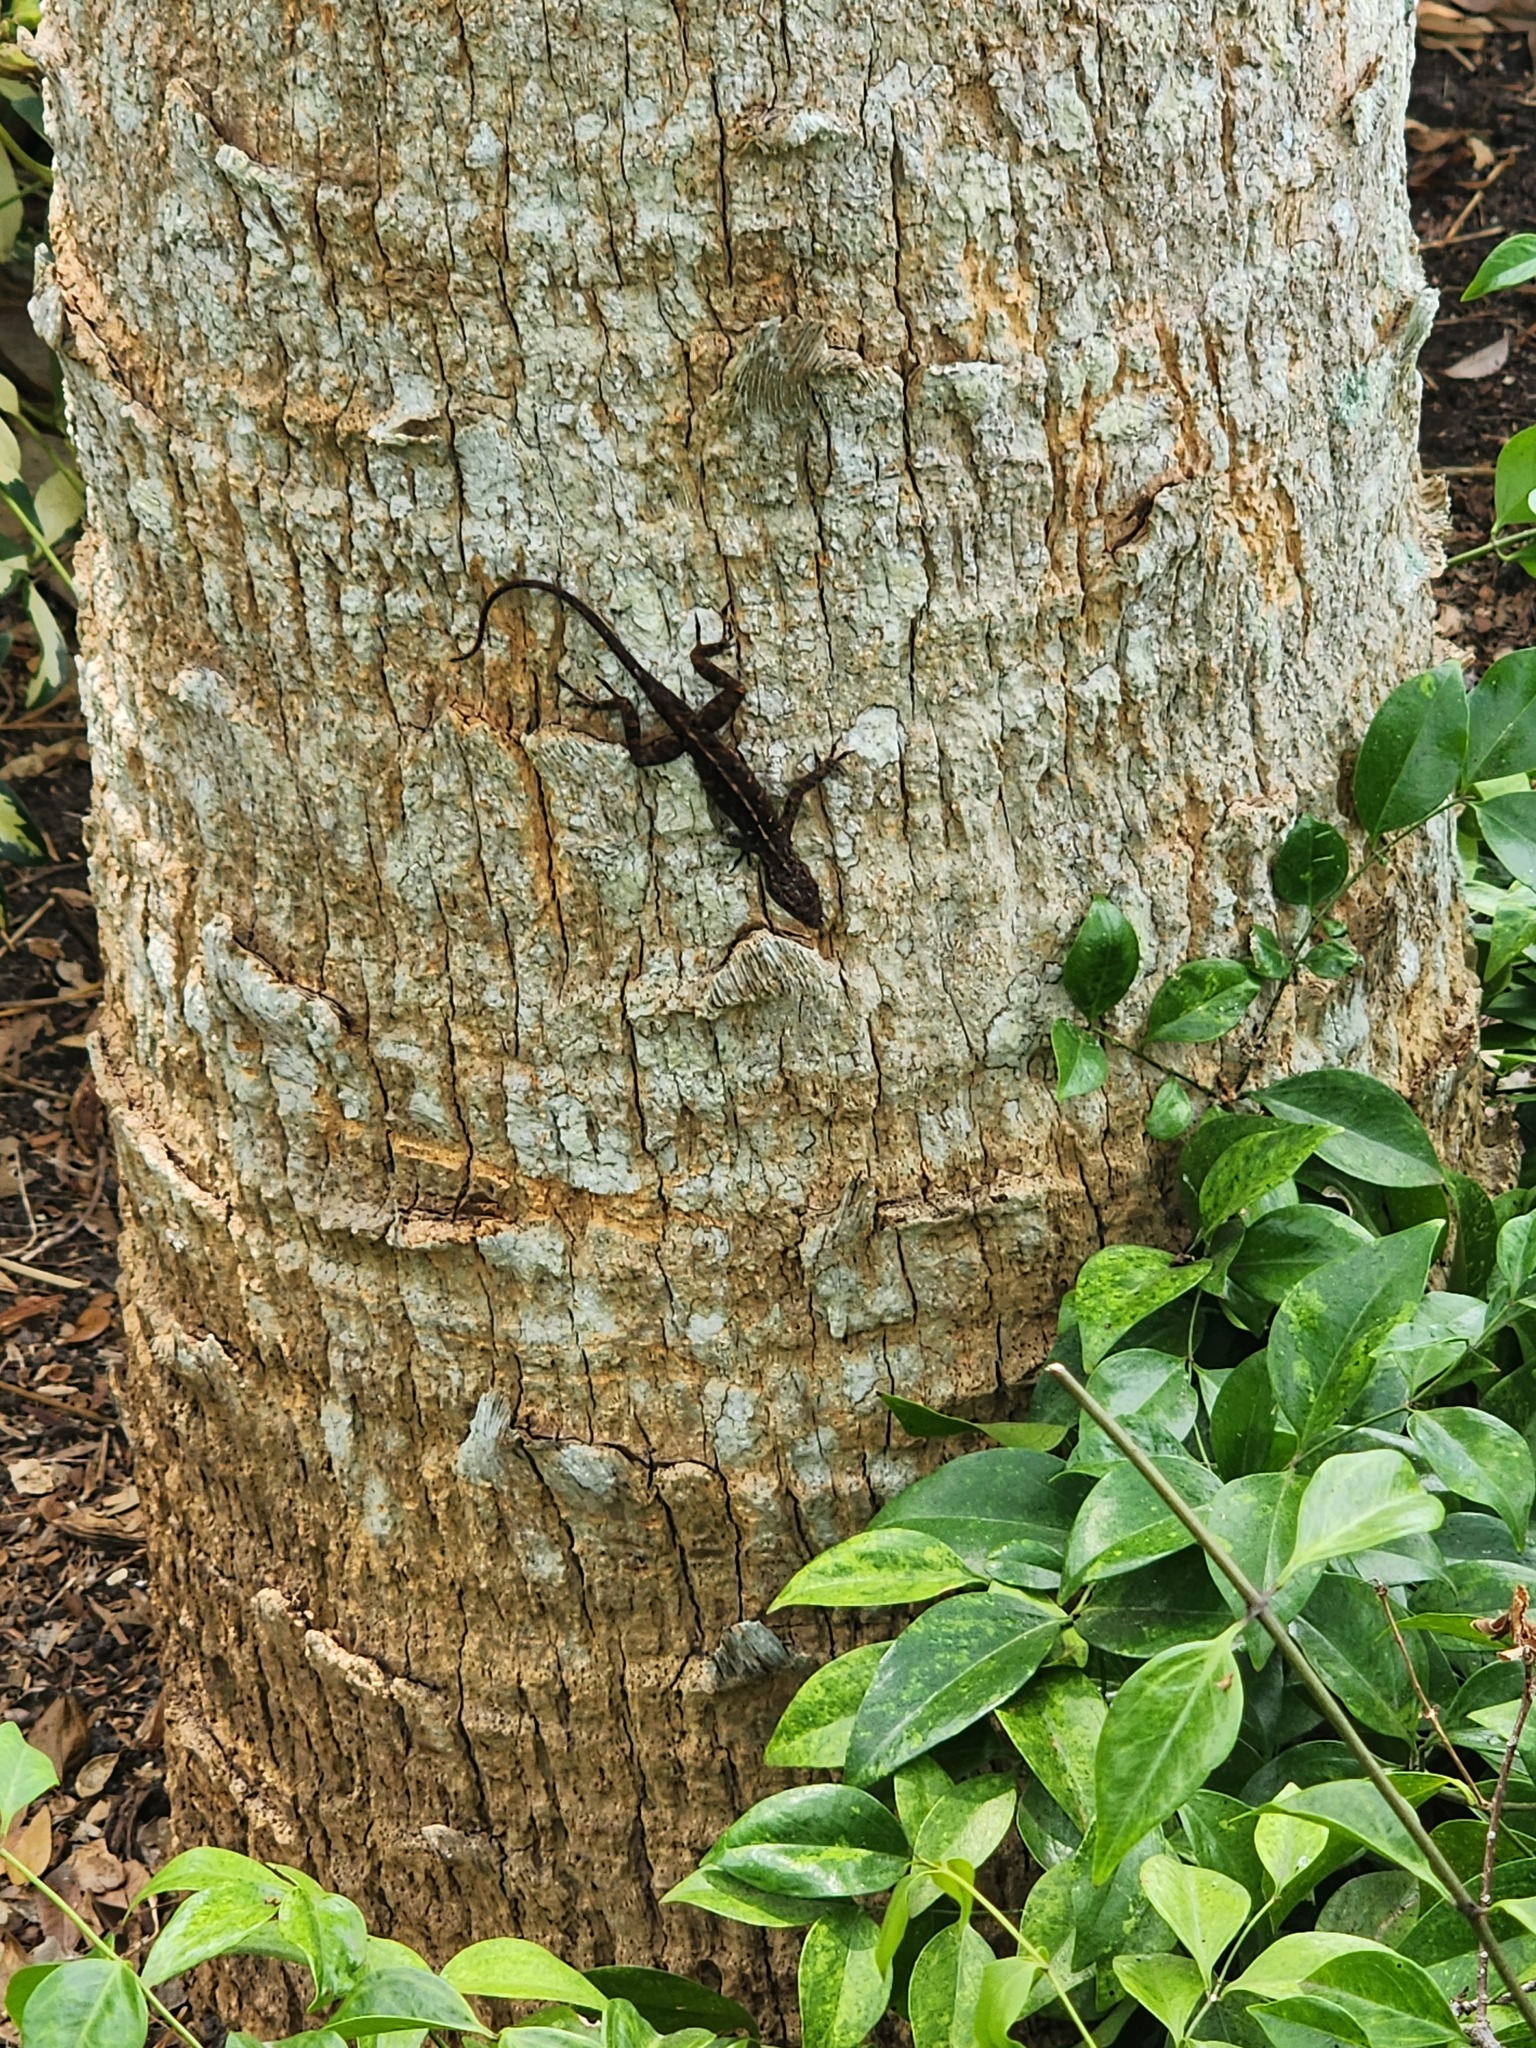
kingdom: Animalia
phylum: Chordata
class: Squamata
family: Dactyloidae
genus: Anolis
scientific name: Anolis sagrei
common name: Brown anole
